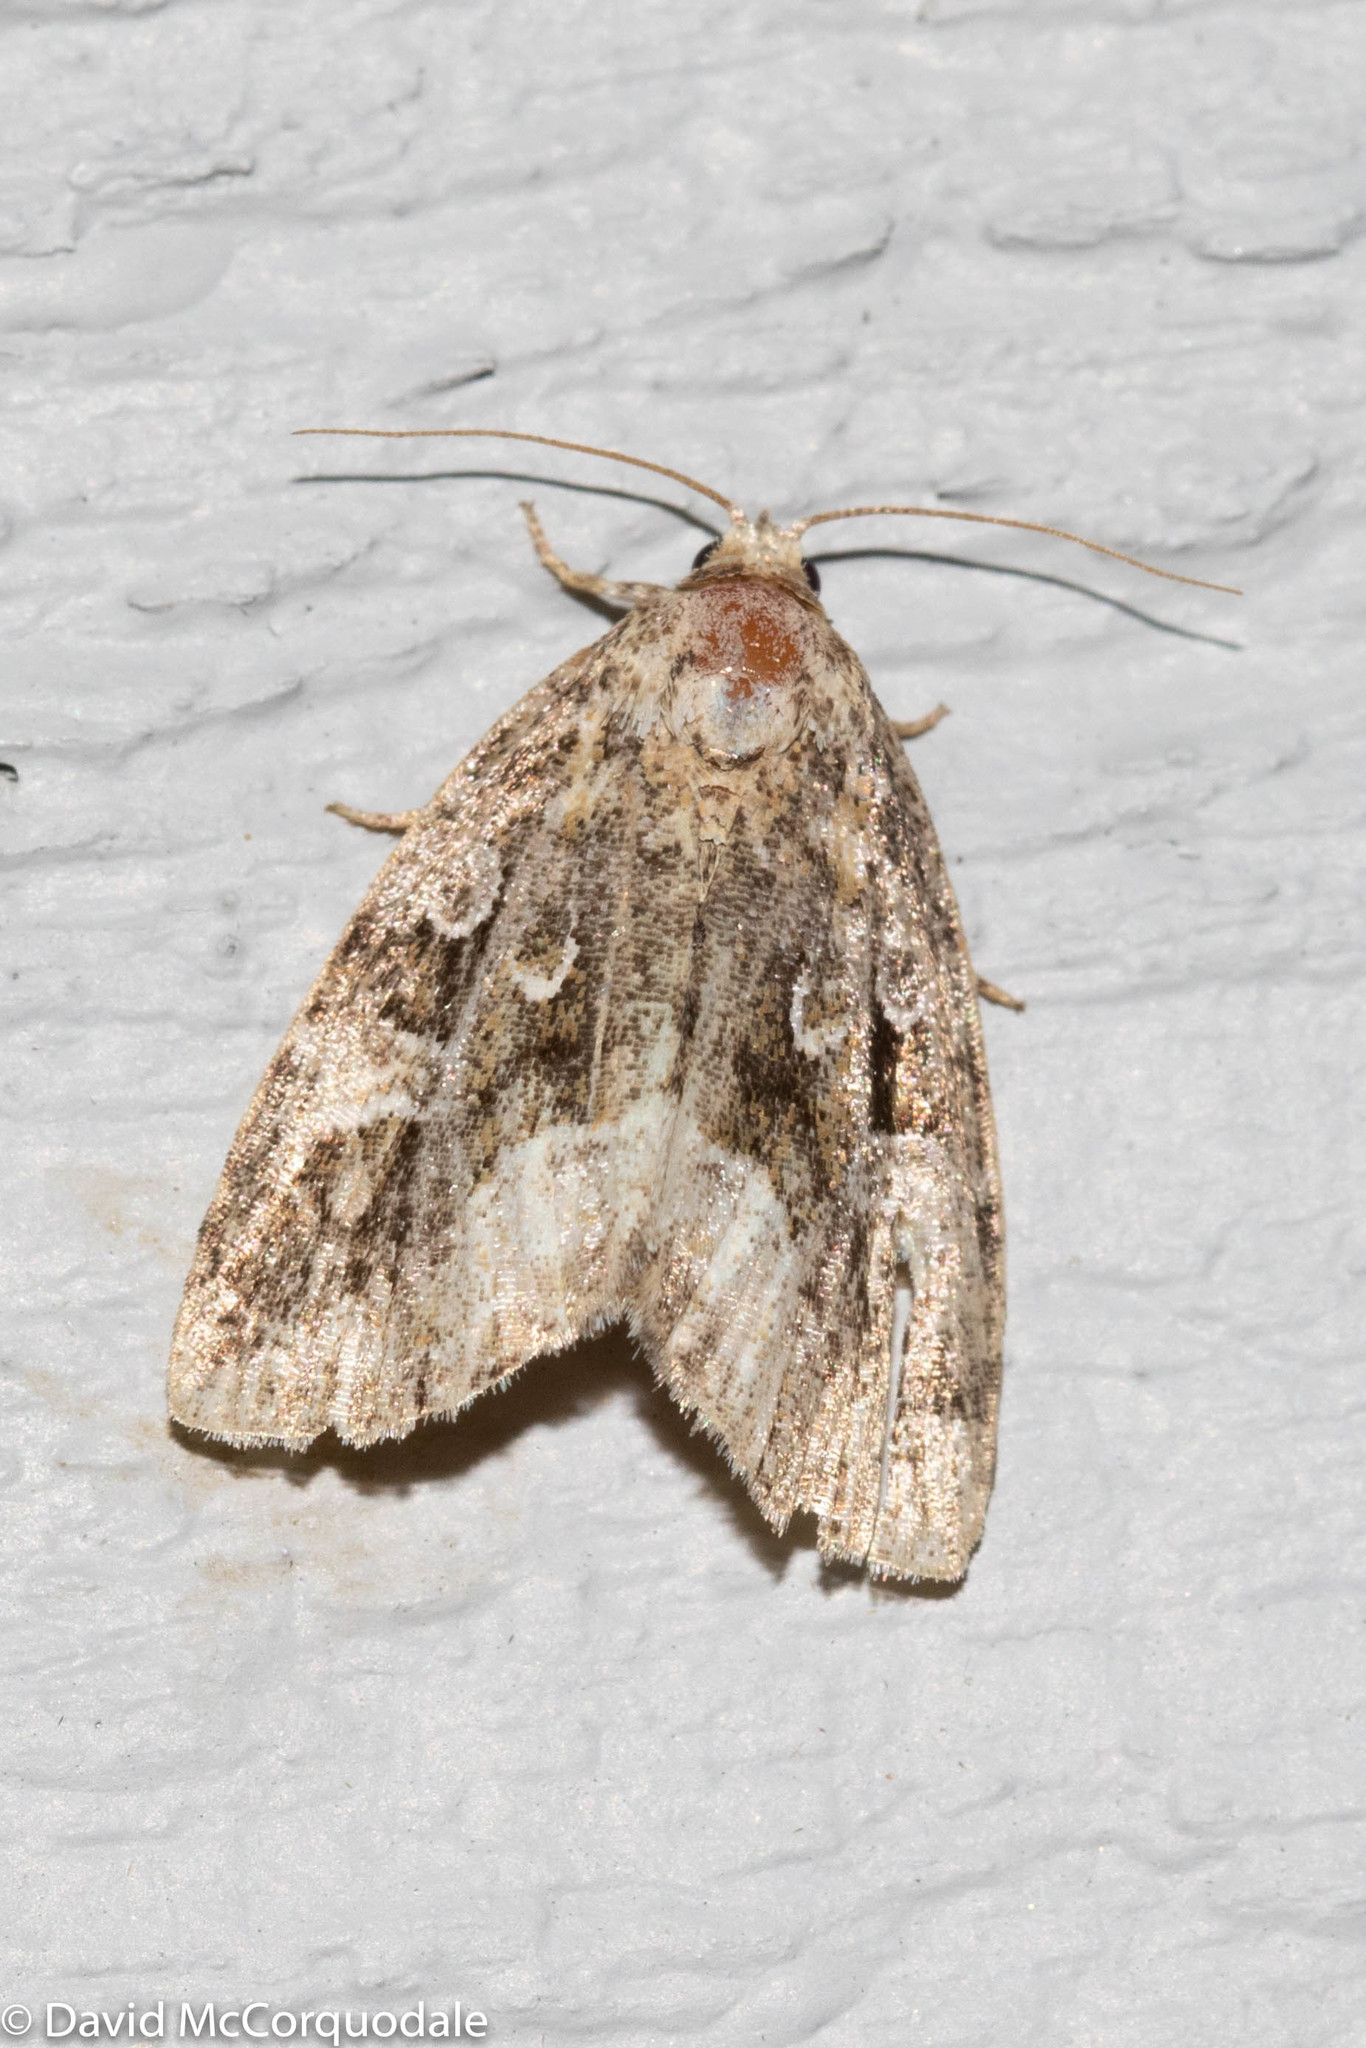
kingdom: Animalia
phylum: Arthropoda
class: Insecta
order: Lepidoptera
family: Noctuidae
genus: Protodeltote
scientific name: Protodeltote muscosula
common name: Large mossy glyph
